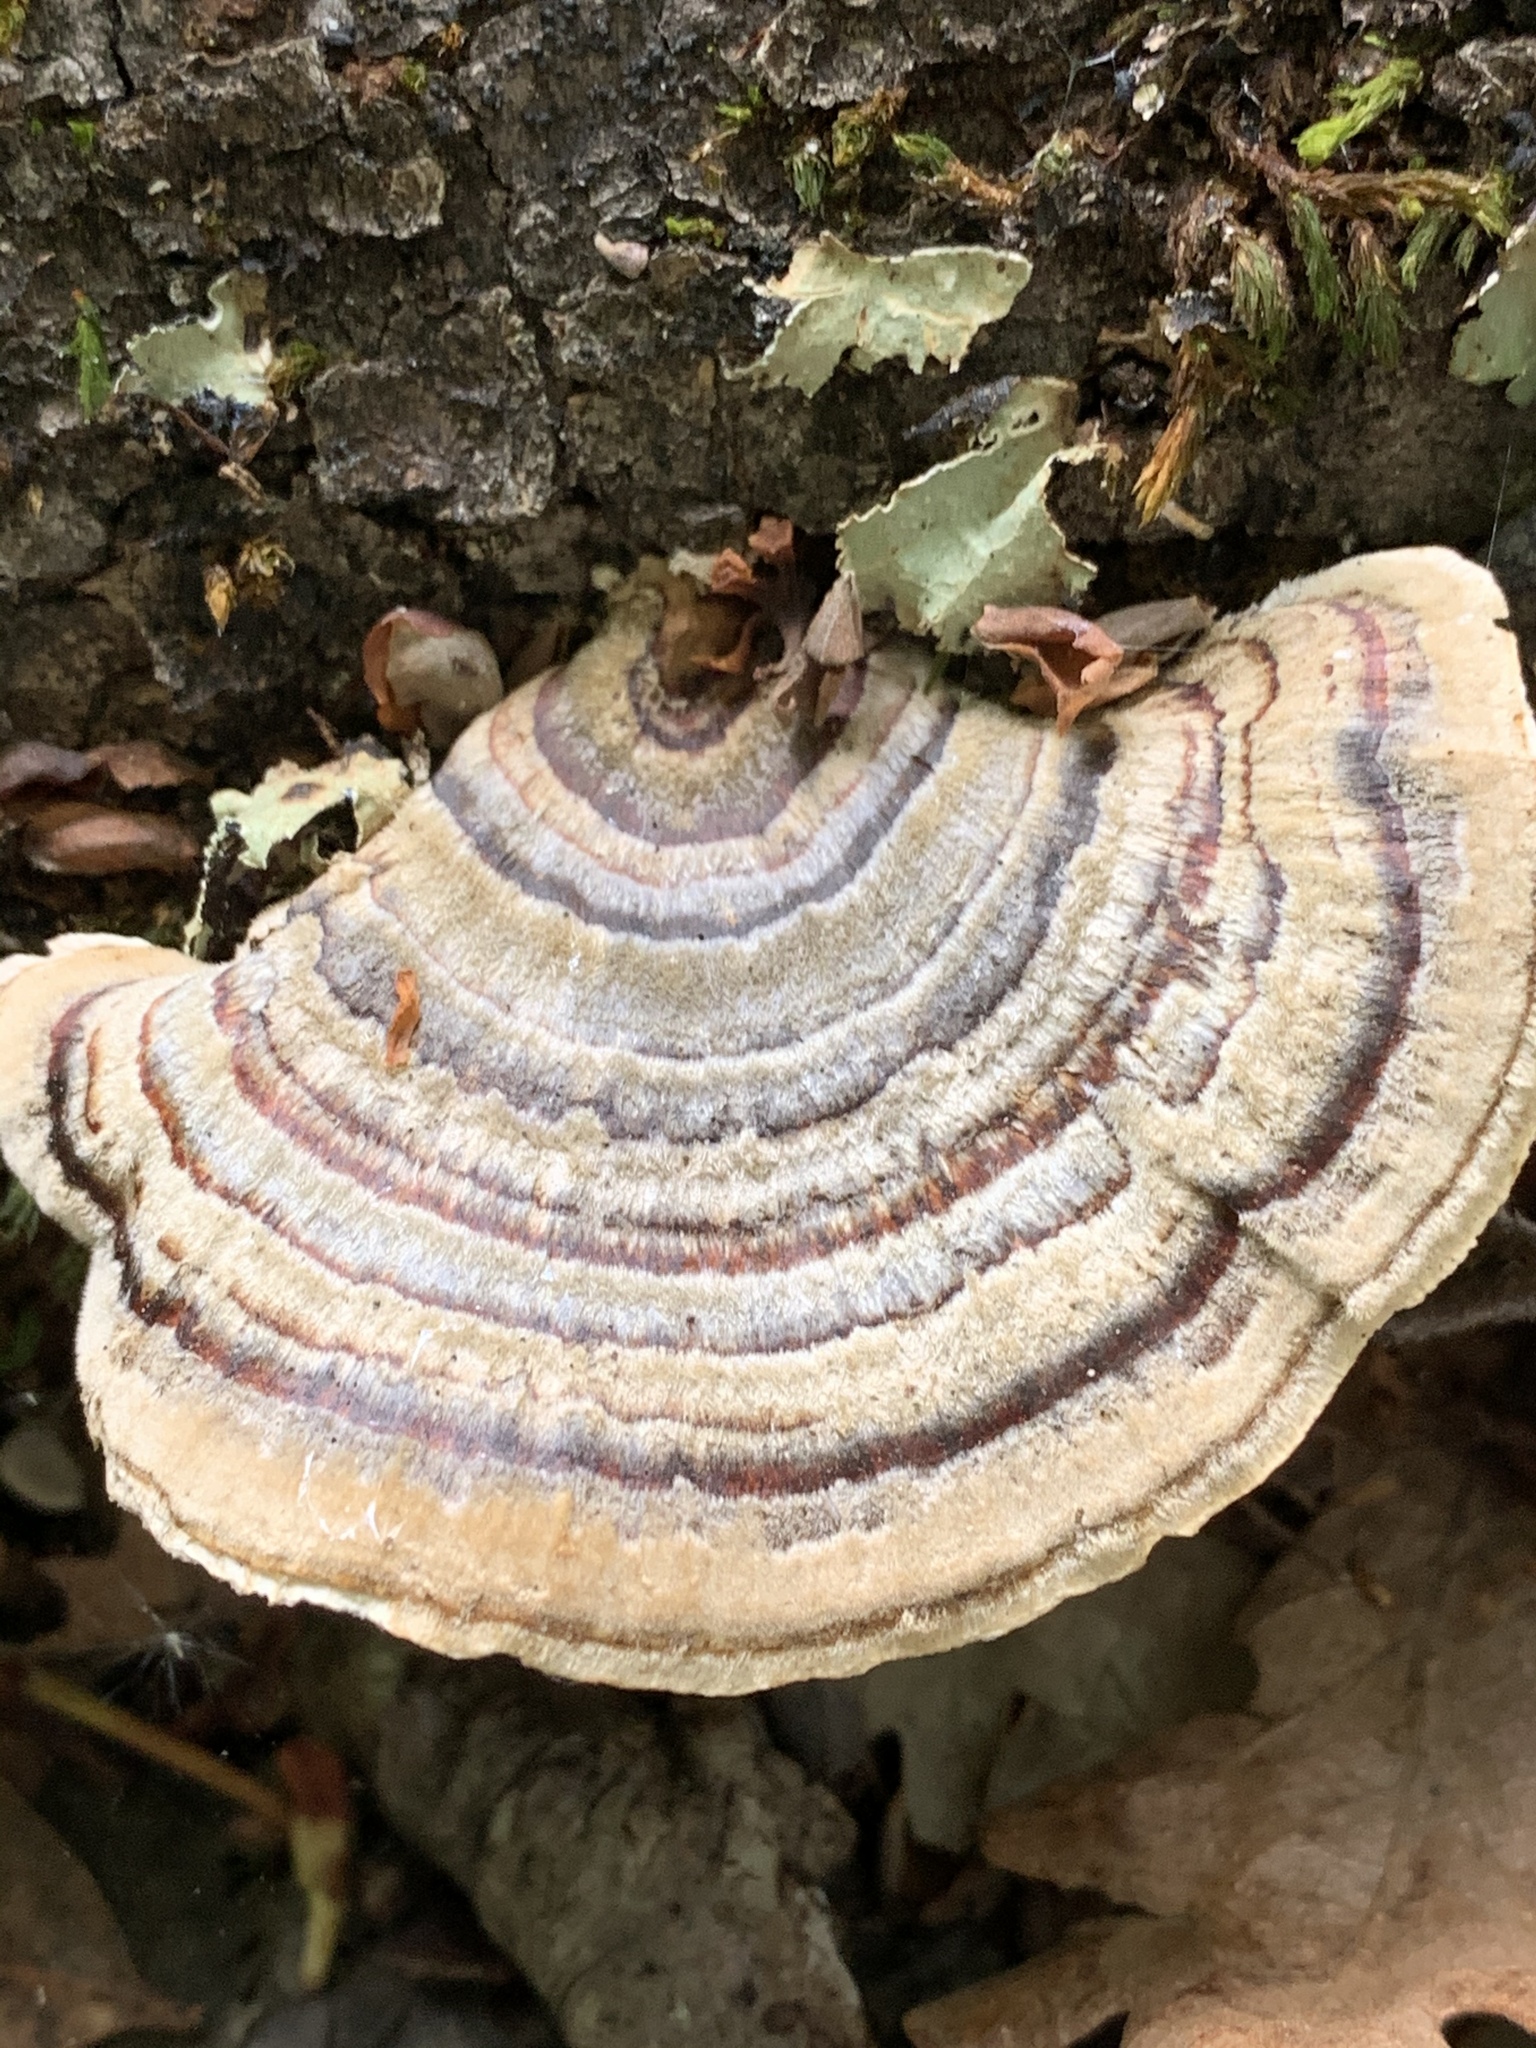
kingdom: Fungi
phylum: Basidiomycota
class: Agaricomycetes
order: Polyporales
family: Polyporaceae
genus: Trametes
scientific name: Trametes versicolor
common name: Turkeytail
